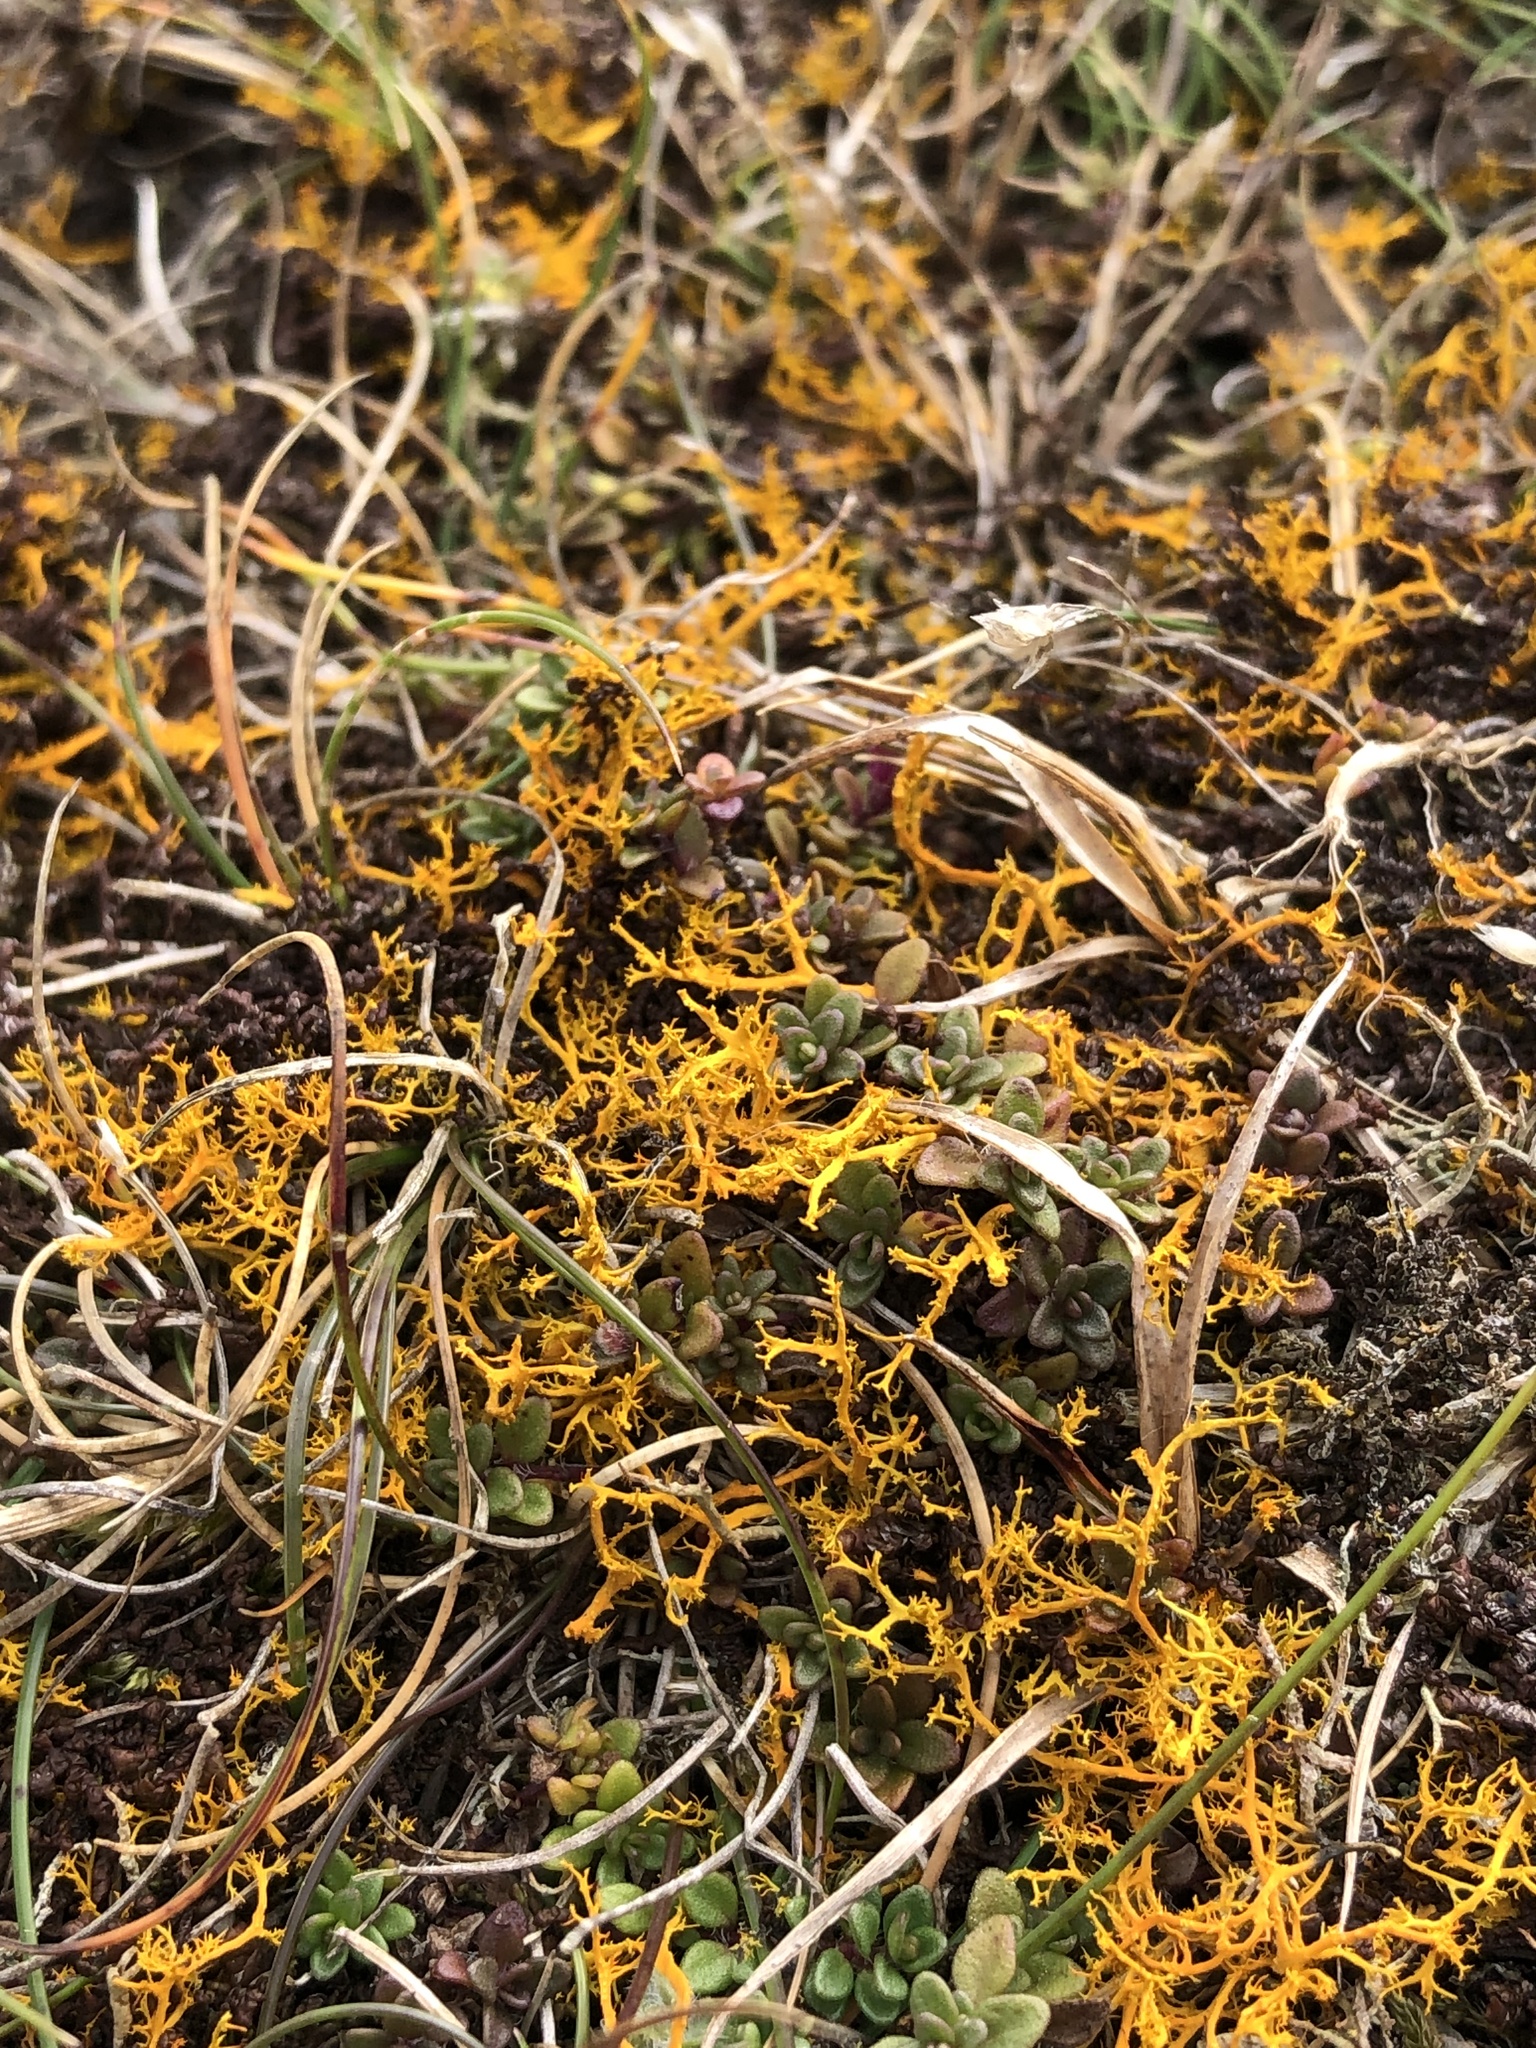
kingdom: Fungi
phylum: Ascomycota
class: Lecanoromycetes
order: Teloschistales
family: Teloschistaceae
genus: Teloschistes
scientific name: Teloschistes flavicans
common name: Golden hair-lichen
